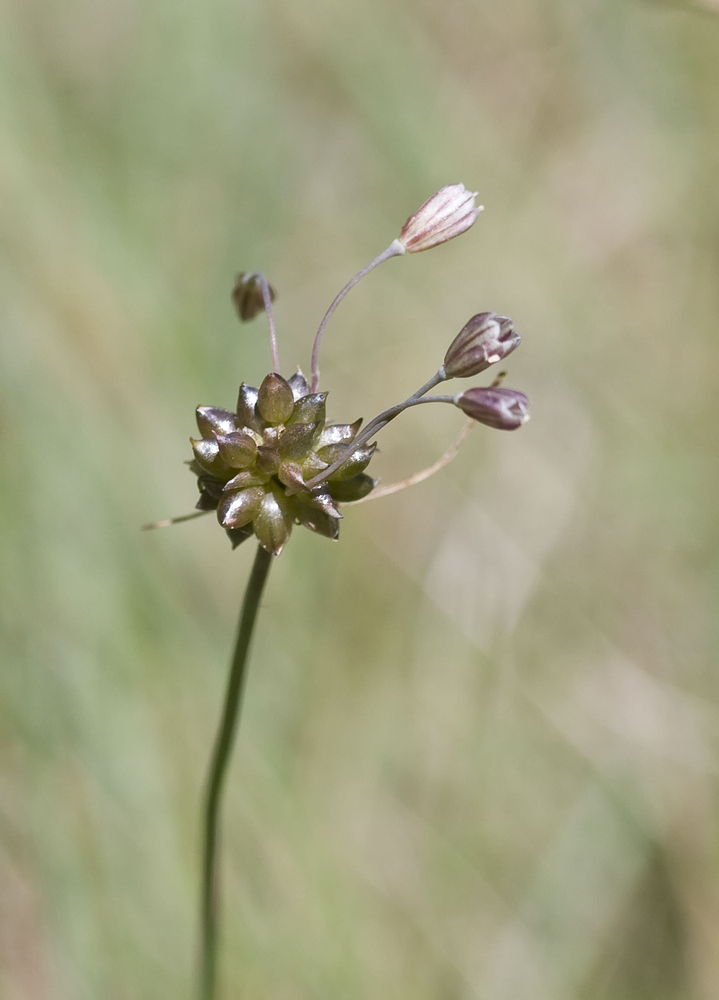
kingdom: Plantae
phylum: Tracheophyta
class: Liliopsida
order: Asparagales
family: Amaryllidaceae
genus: Allium
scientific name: Allium oleraceum
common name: Field garlic
